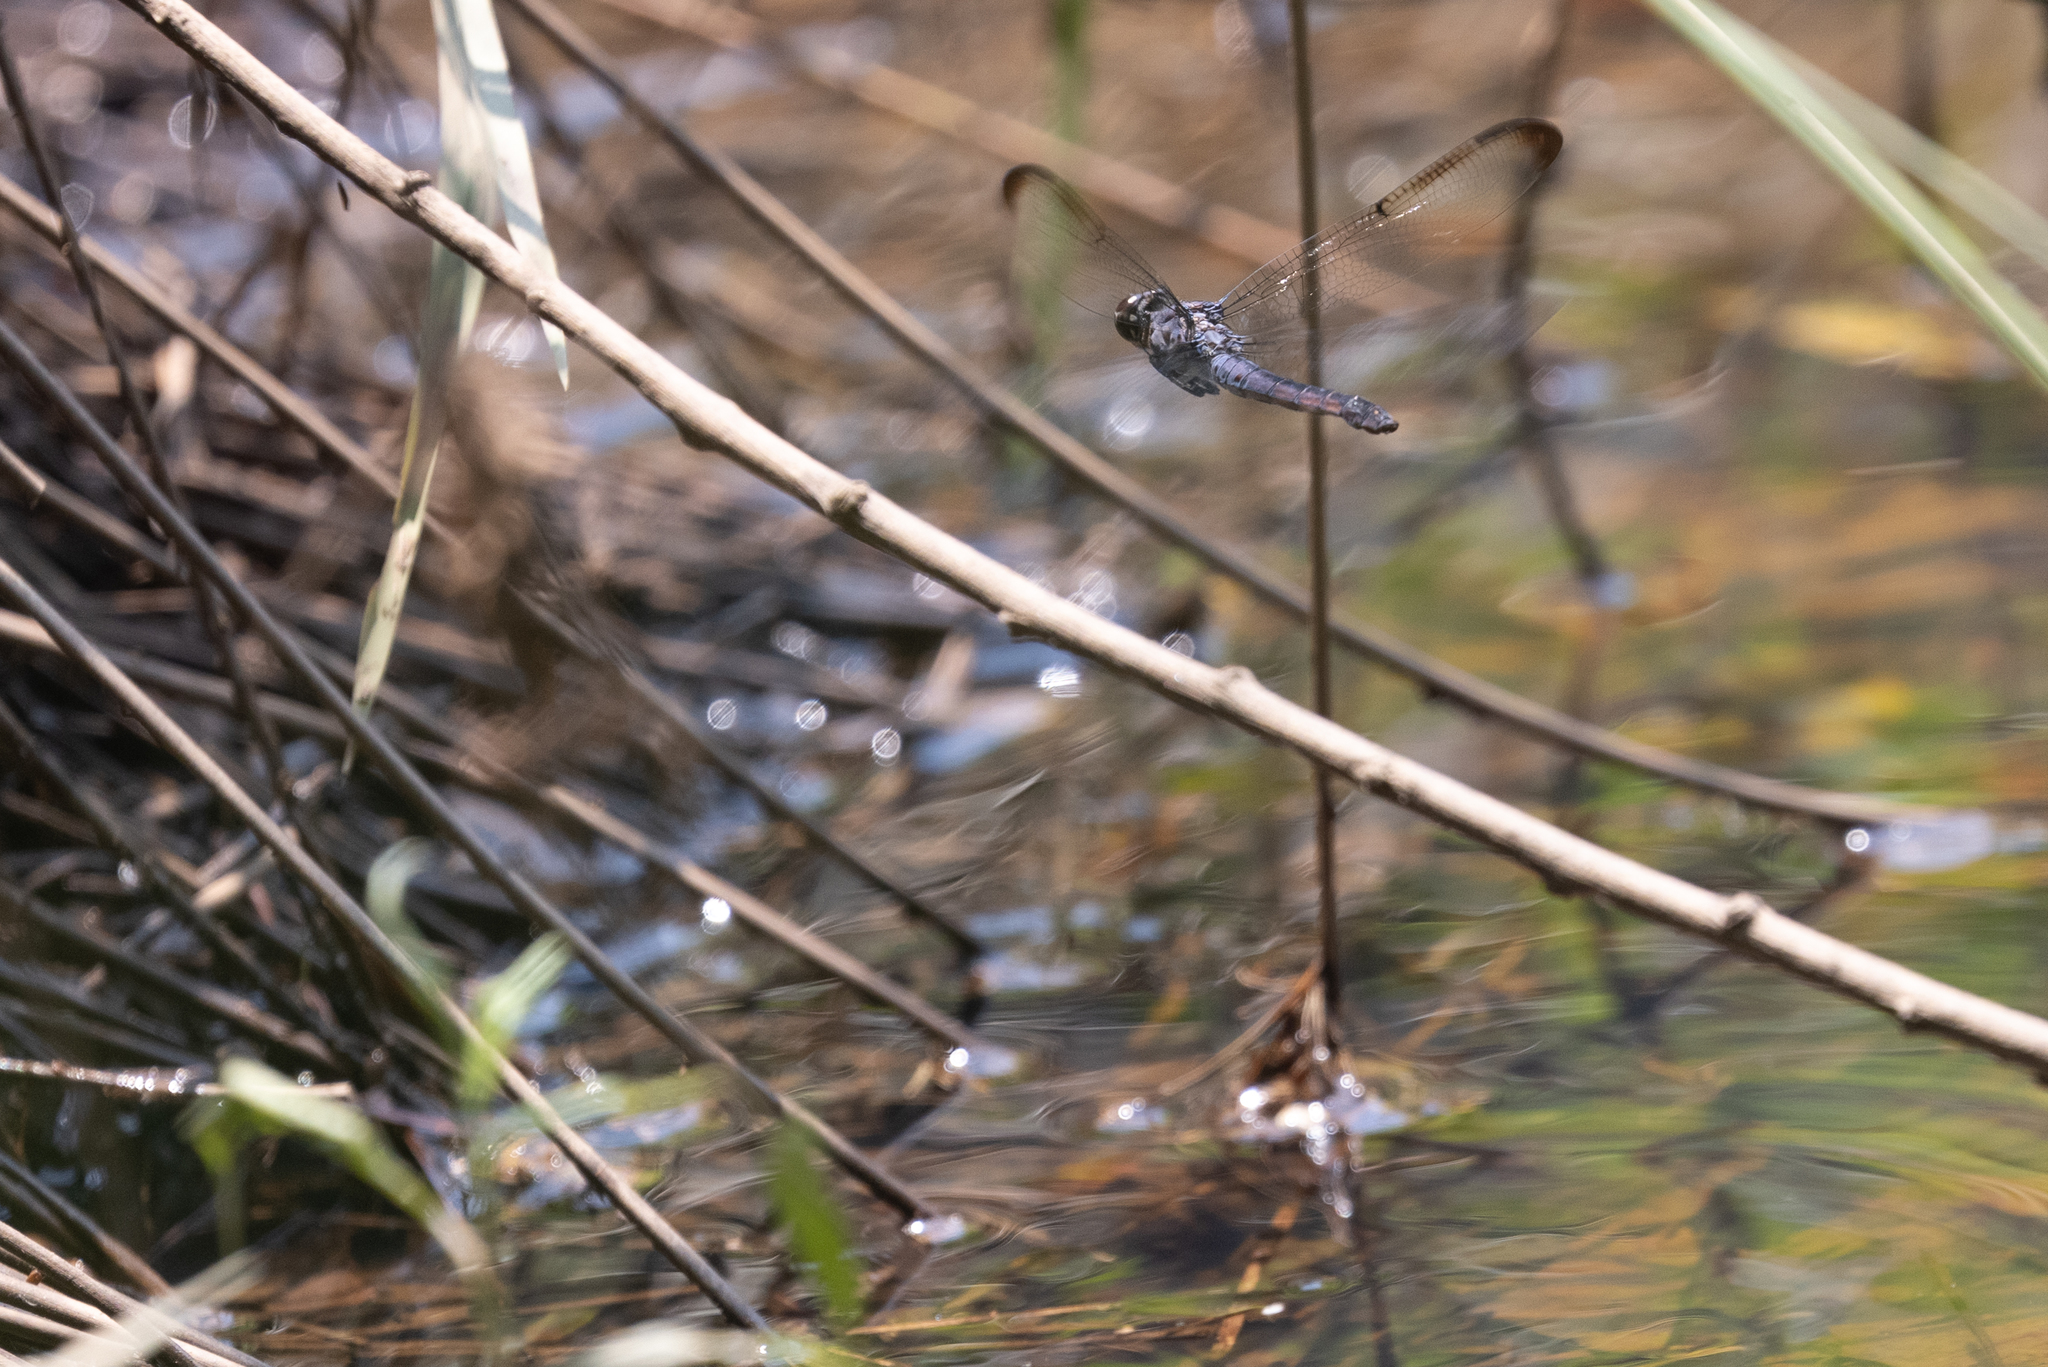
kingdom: Animalia
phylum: Arthropoda
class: Insecta
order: Odonata
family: Libellulidae
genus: Libellula
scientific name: Libellula incesta
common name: Slaty skimmer
